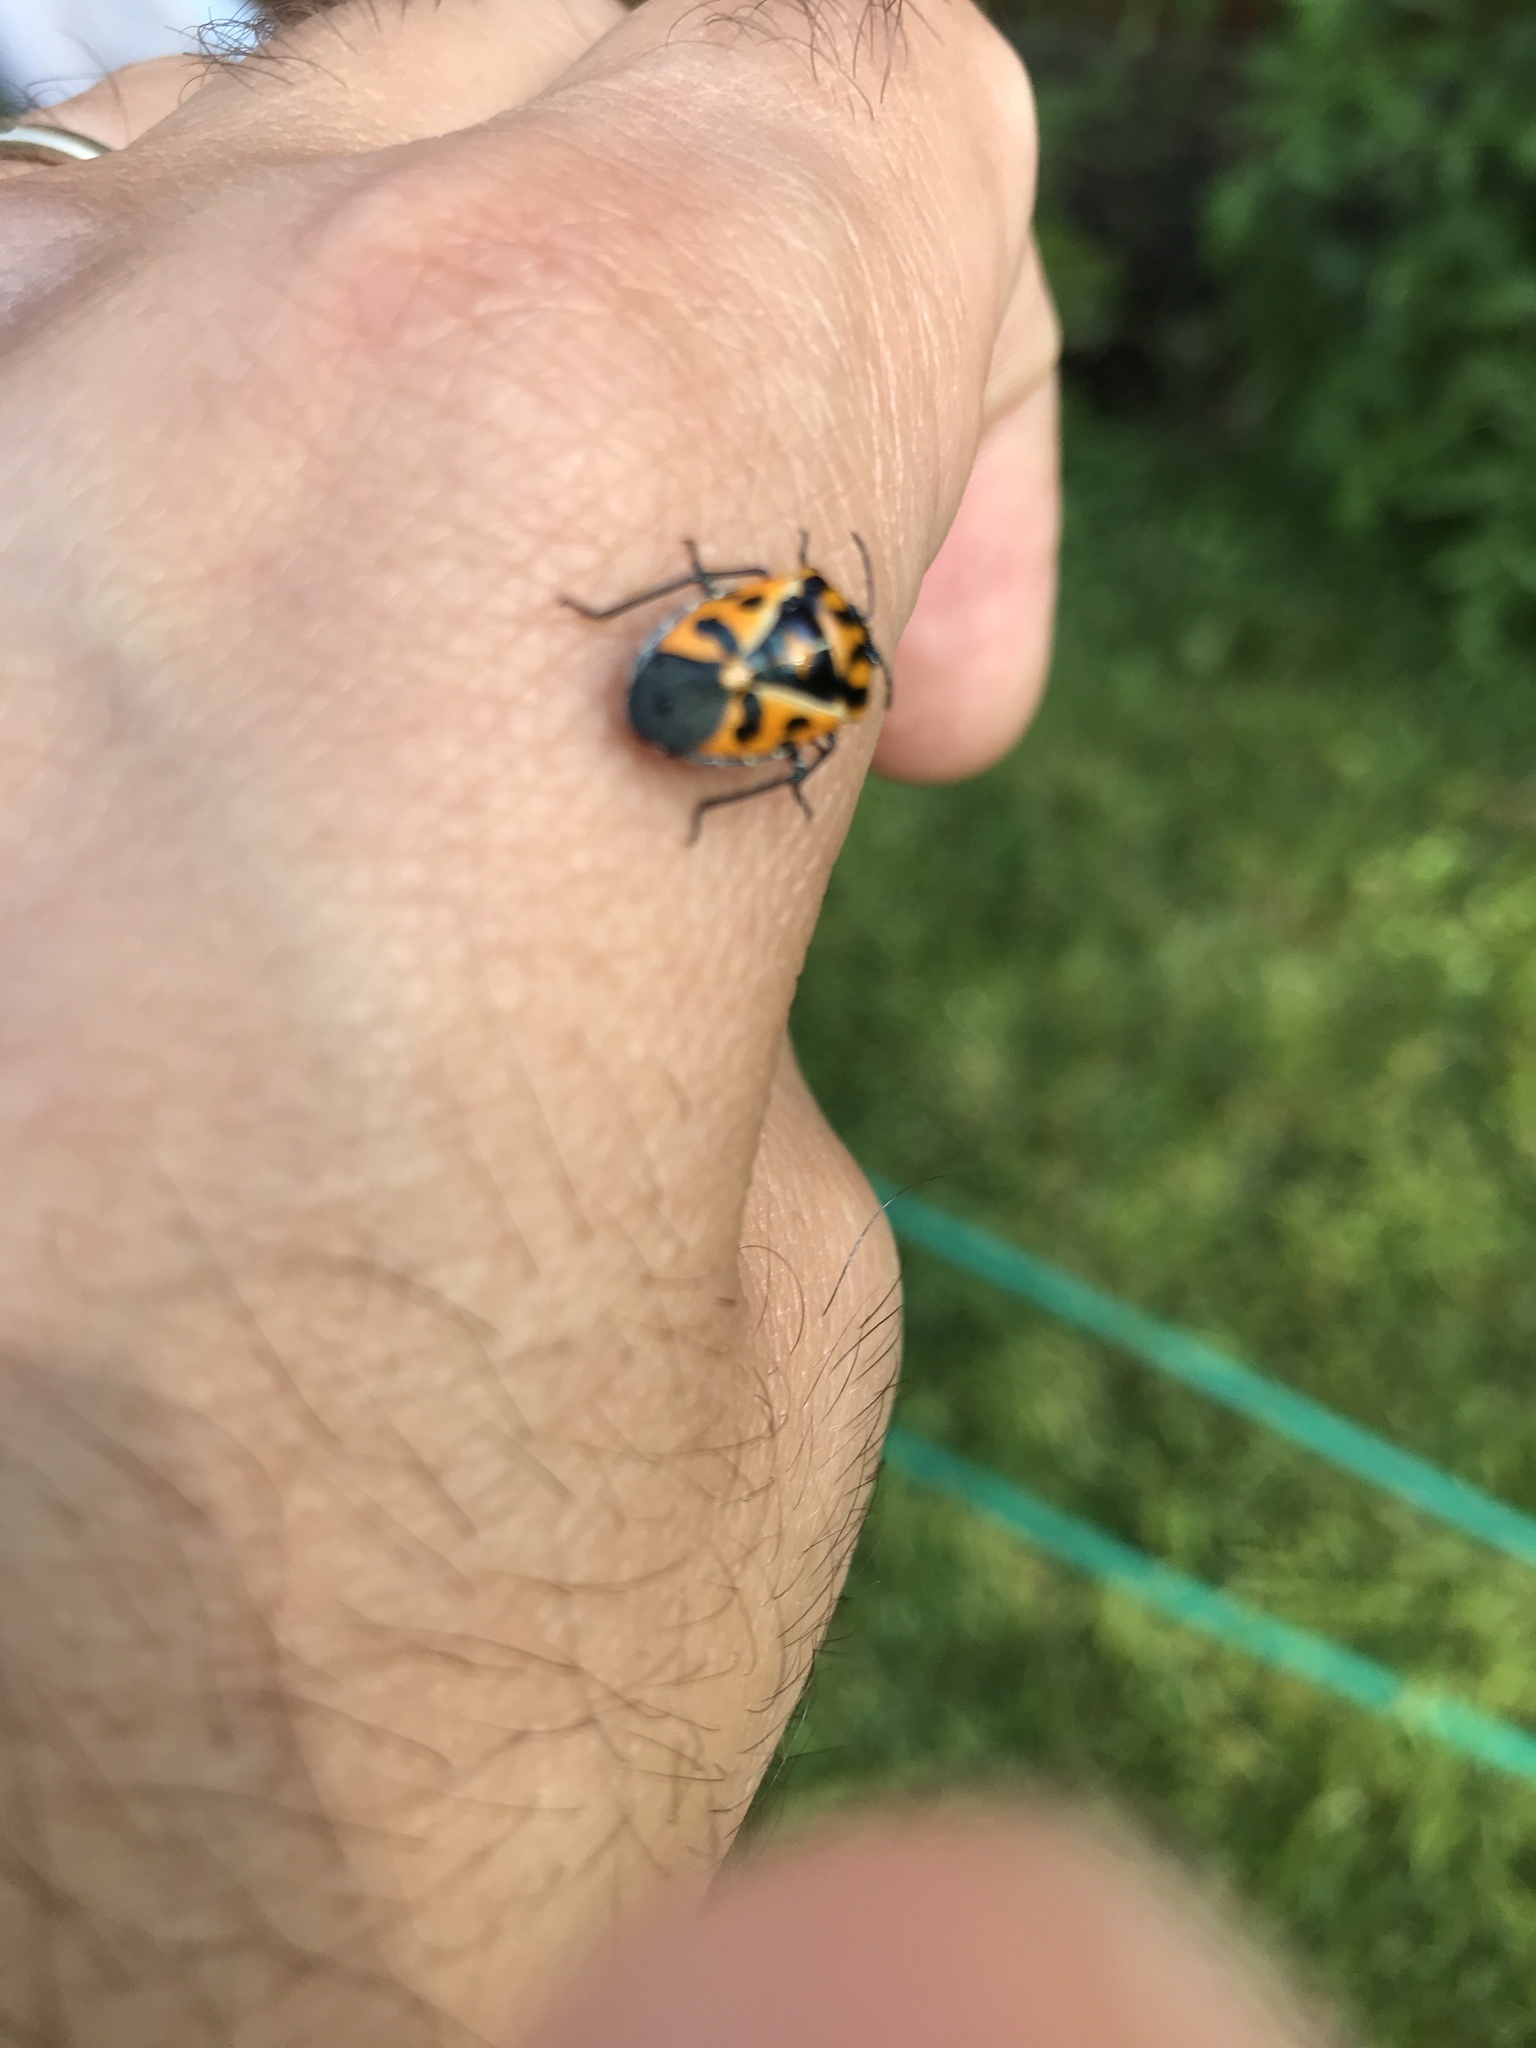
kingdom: Animalia
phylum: Arthropoda
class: Insecta
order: Hemiptera
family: Pentatomidae
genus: Murgantia
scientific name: Murgantia histrionica
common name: Harlequin bug
